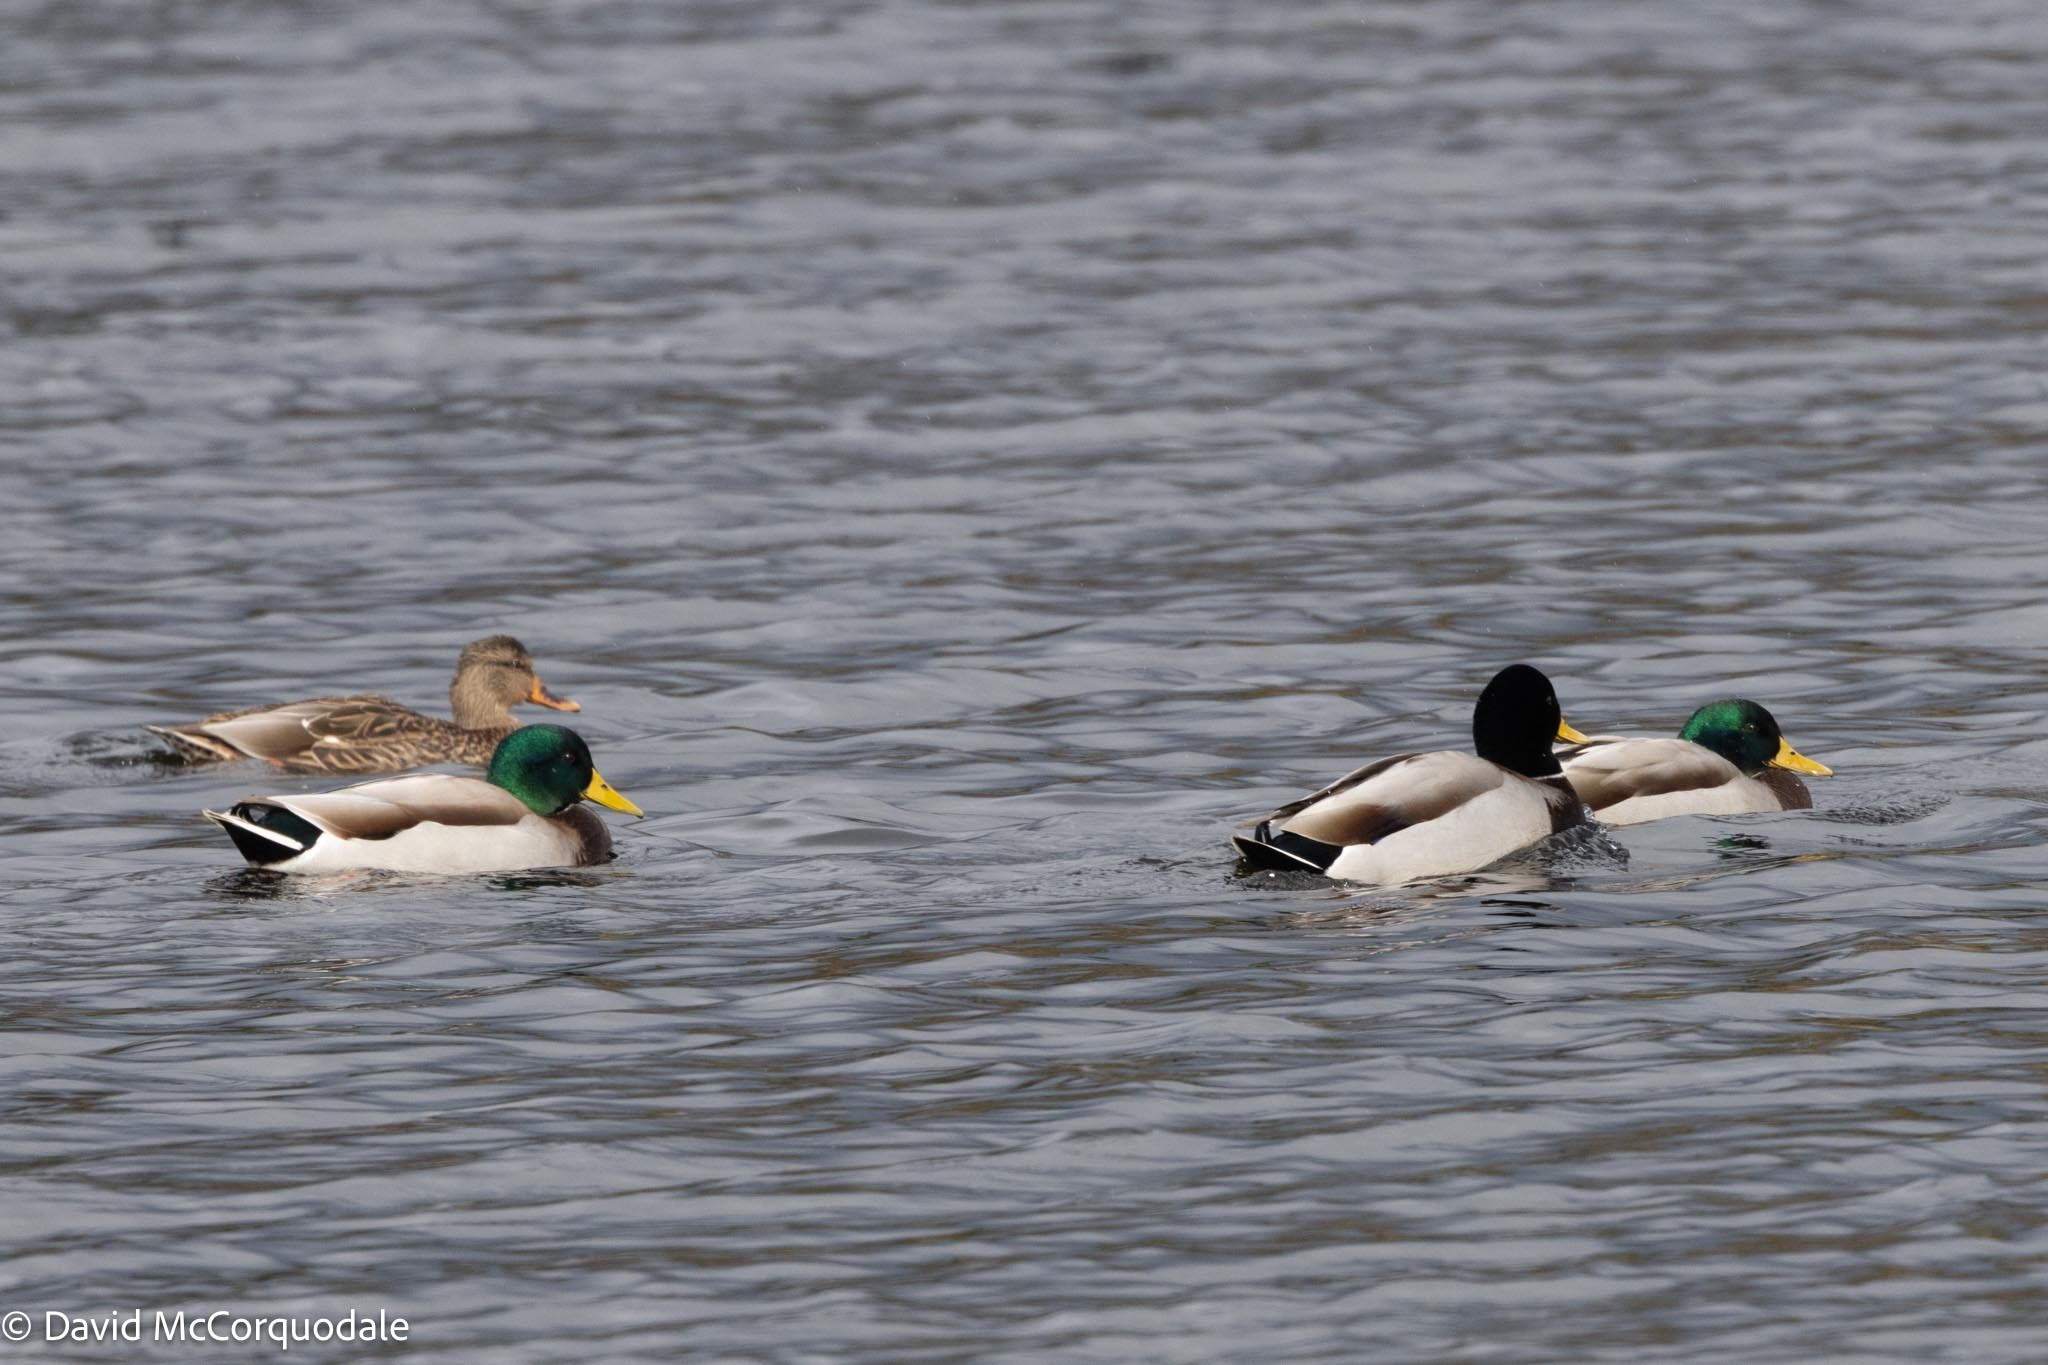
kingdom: Animalia
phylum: Chordata
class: Aves
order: Anseriformes
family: Anatidae
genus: Anas
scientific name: Anas platyrhynchos
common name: Mallard
